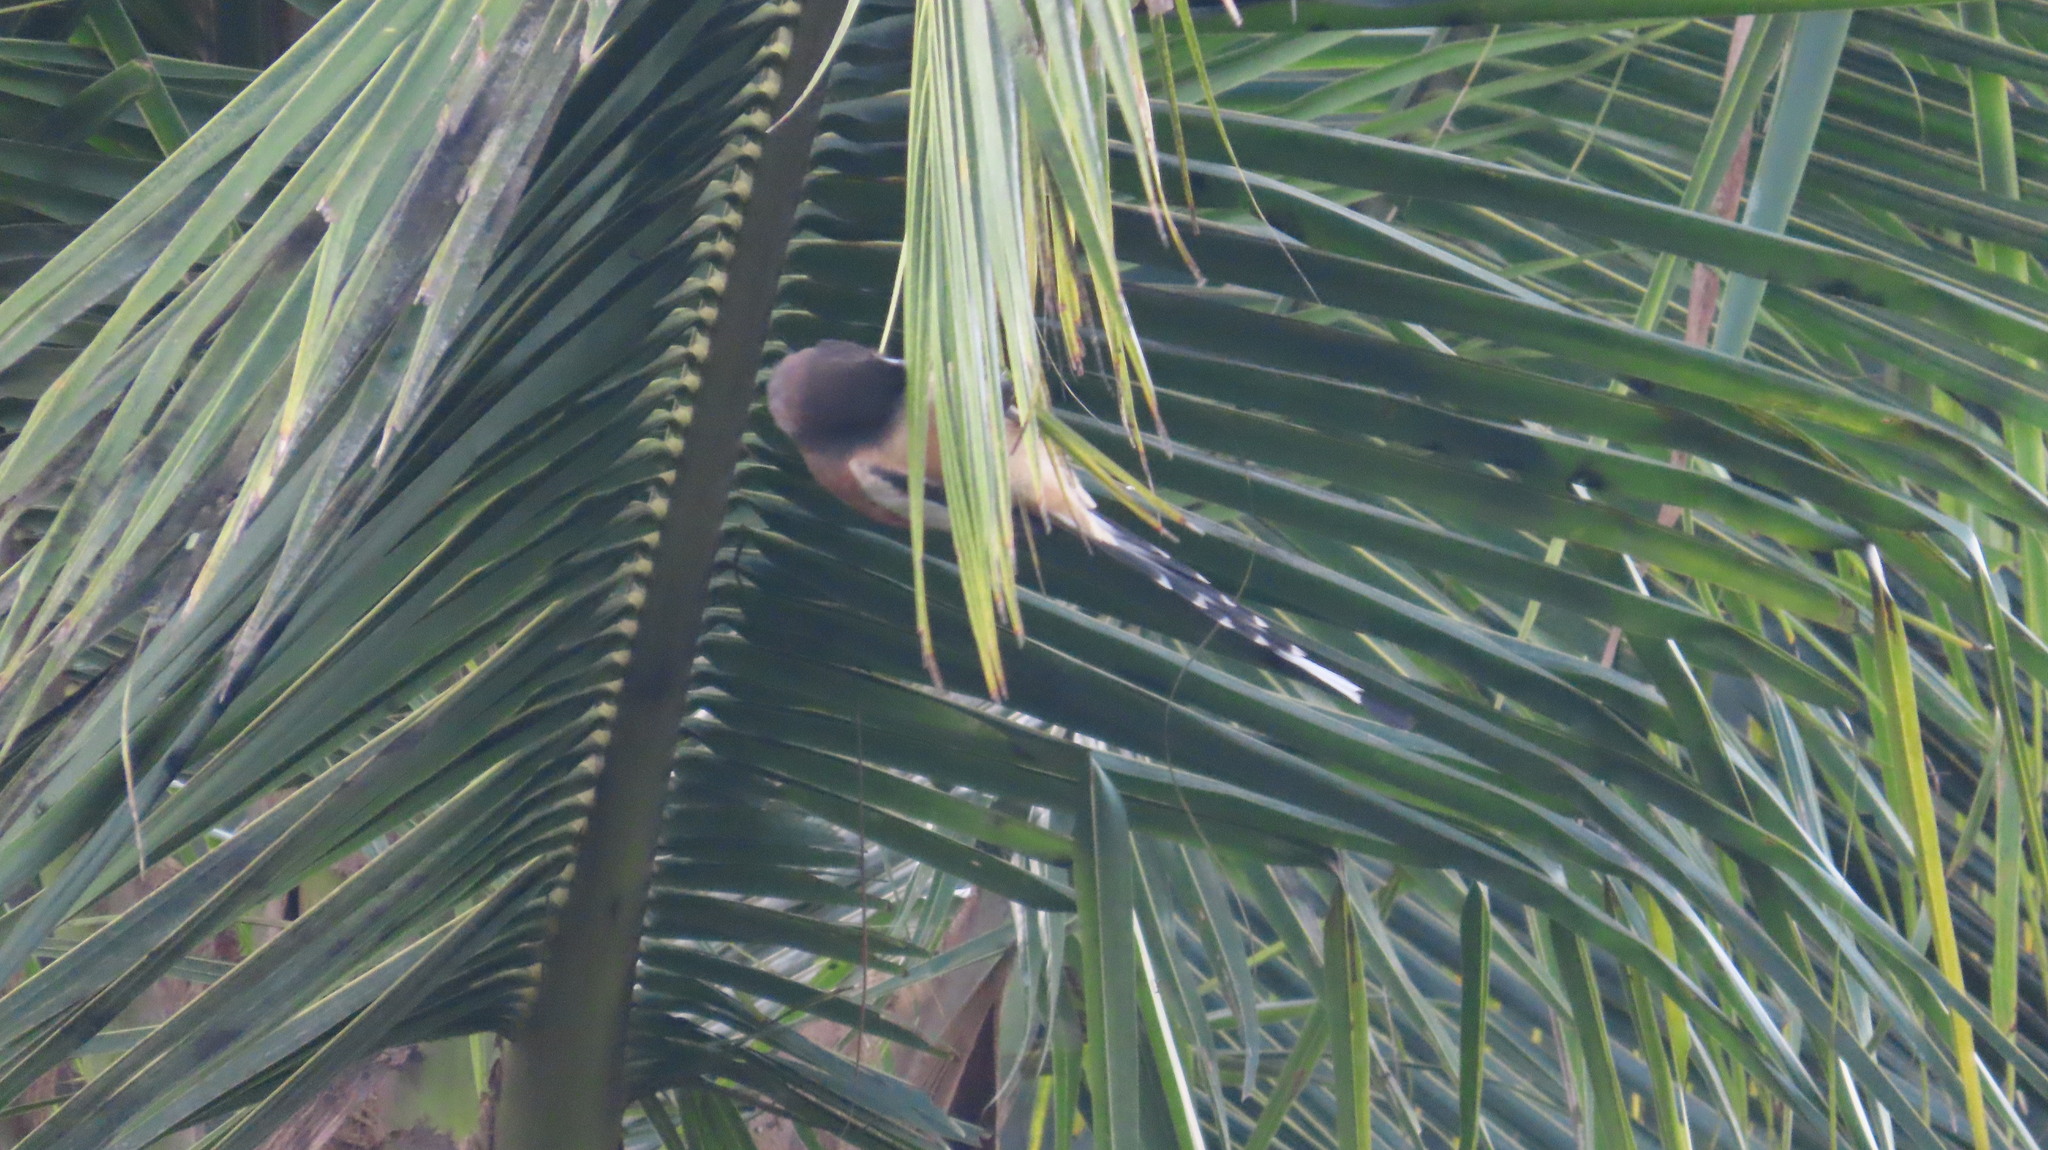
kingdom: Animalia
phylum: Chordata
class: Aves
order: Passeriformes
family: Corvidae
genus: Dendrocitta
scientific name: Dendrocitta vagabunda
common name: Rufous treepie
